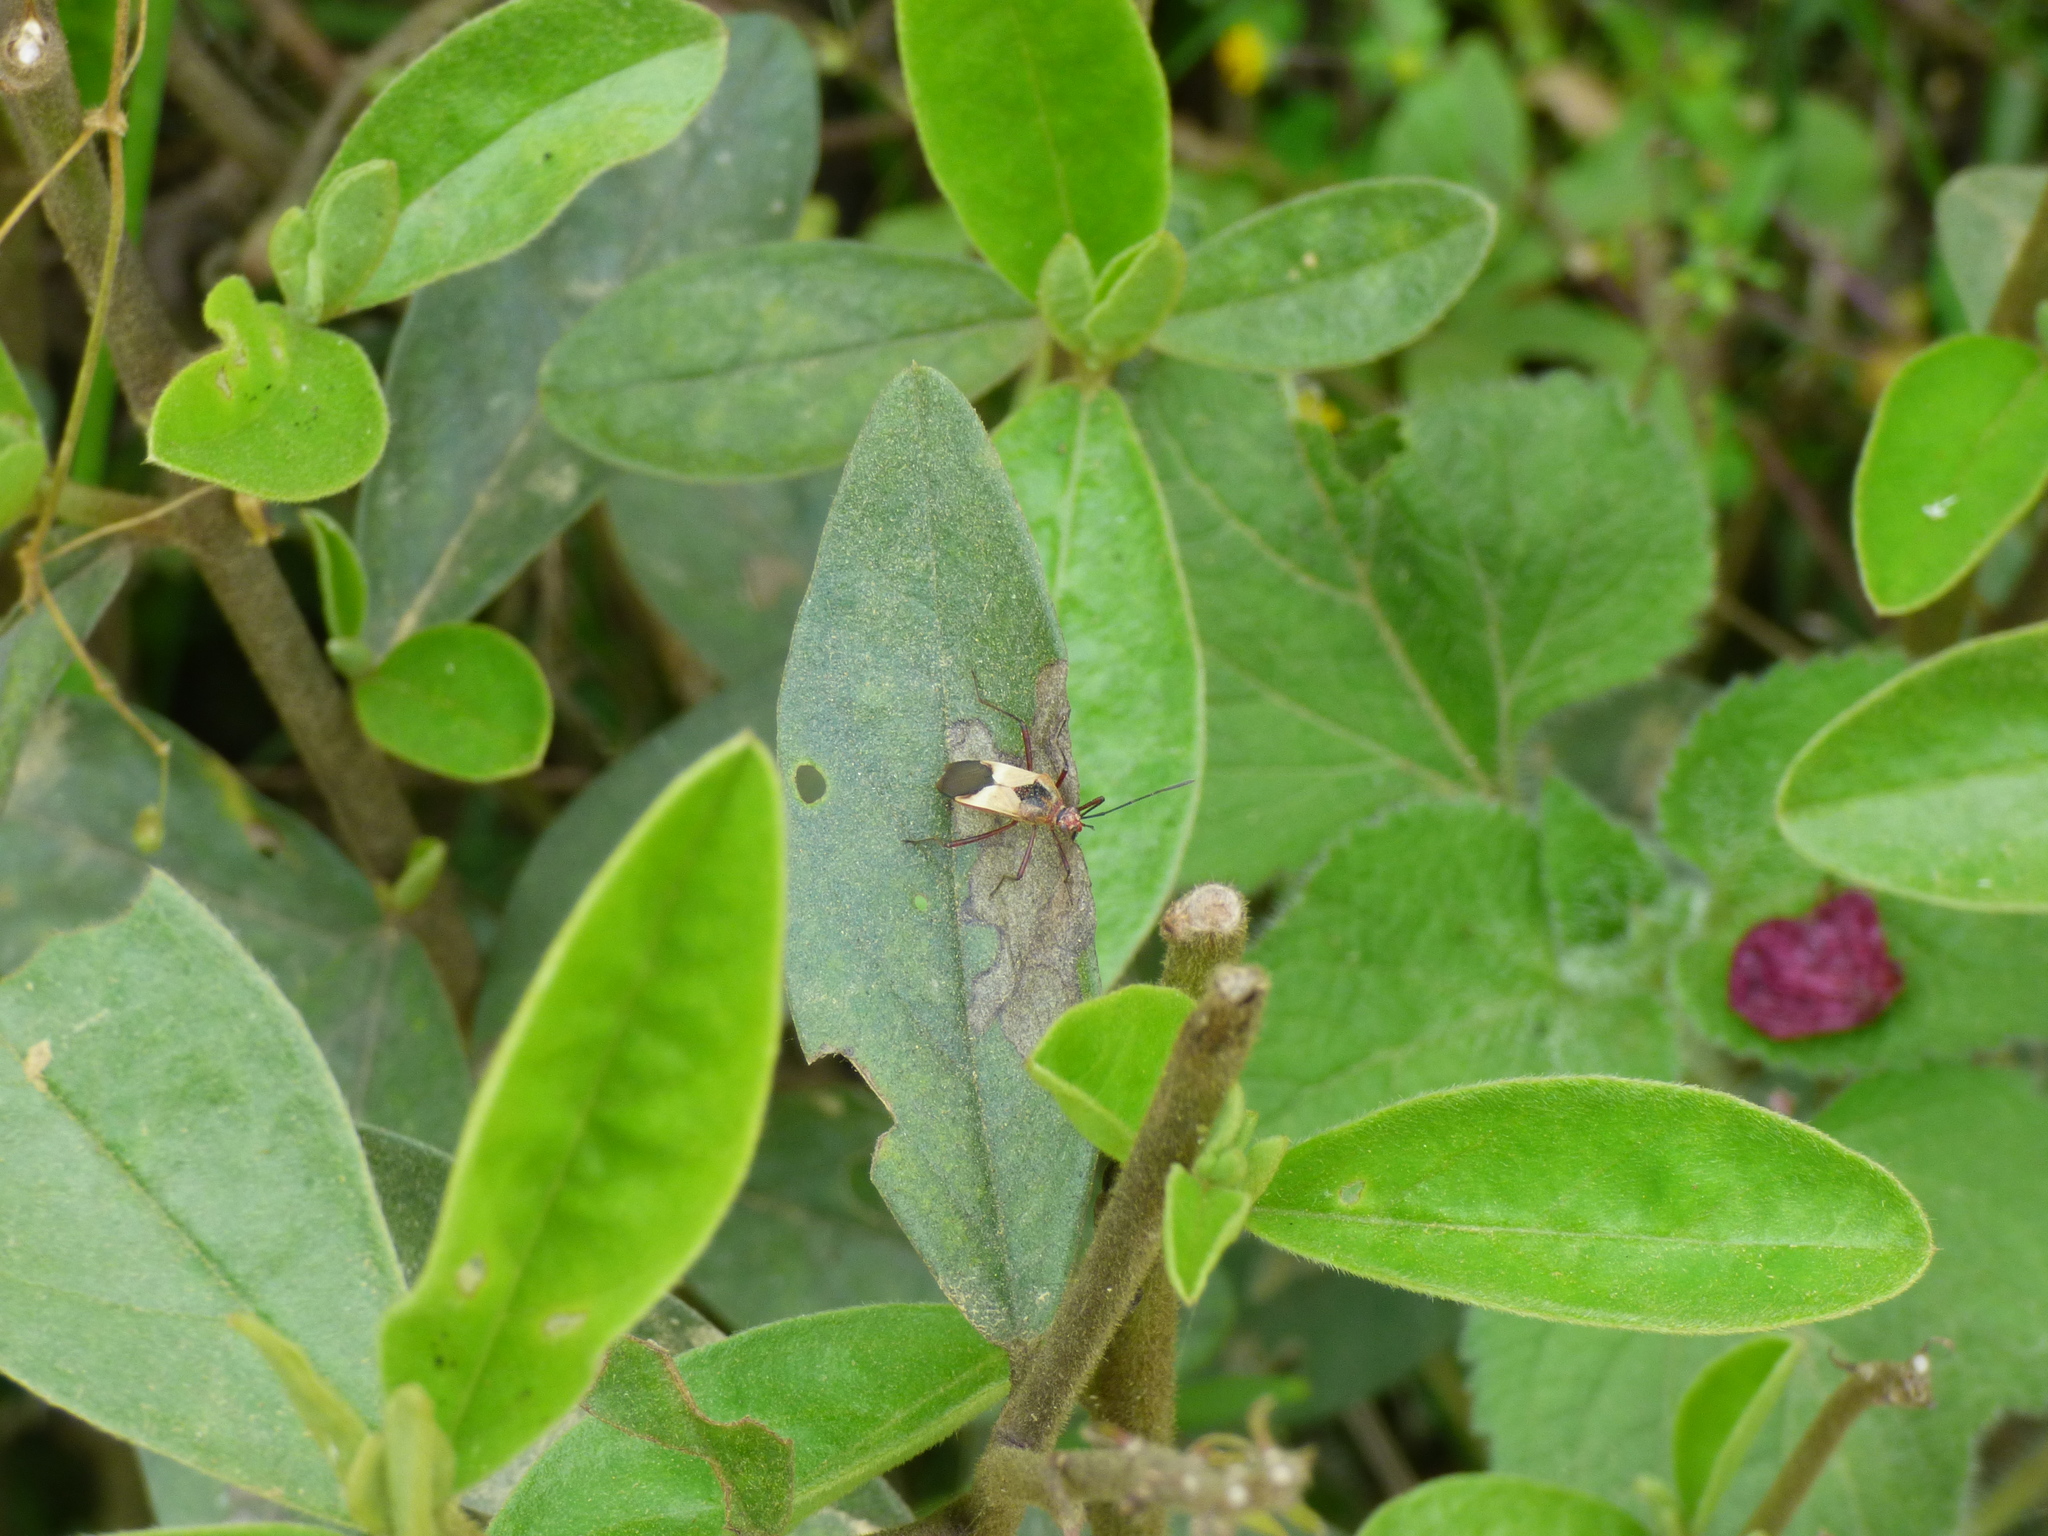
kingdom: Animalia
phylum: Arthropoda
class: Insecta
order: Hemiptera
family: Coreidae
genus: Hypselonotus
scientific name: Hypselonotus interruptus
